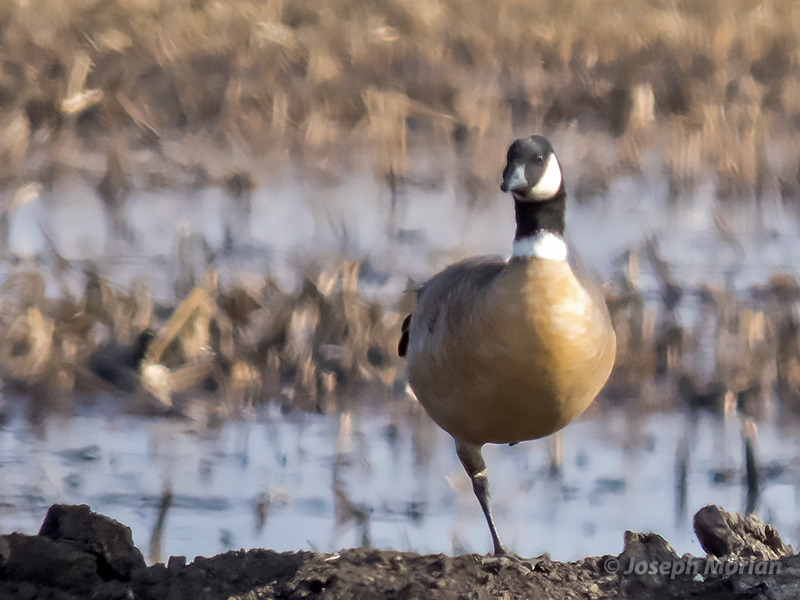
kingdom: Animalia
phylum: Chordata
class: Aves
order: Anseriformes
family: Anatidae
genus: Branta
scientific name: Branta hutchinsii
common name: Cackling goose
